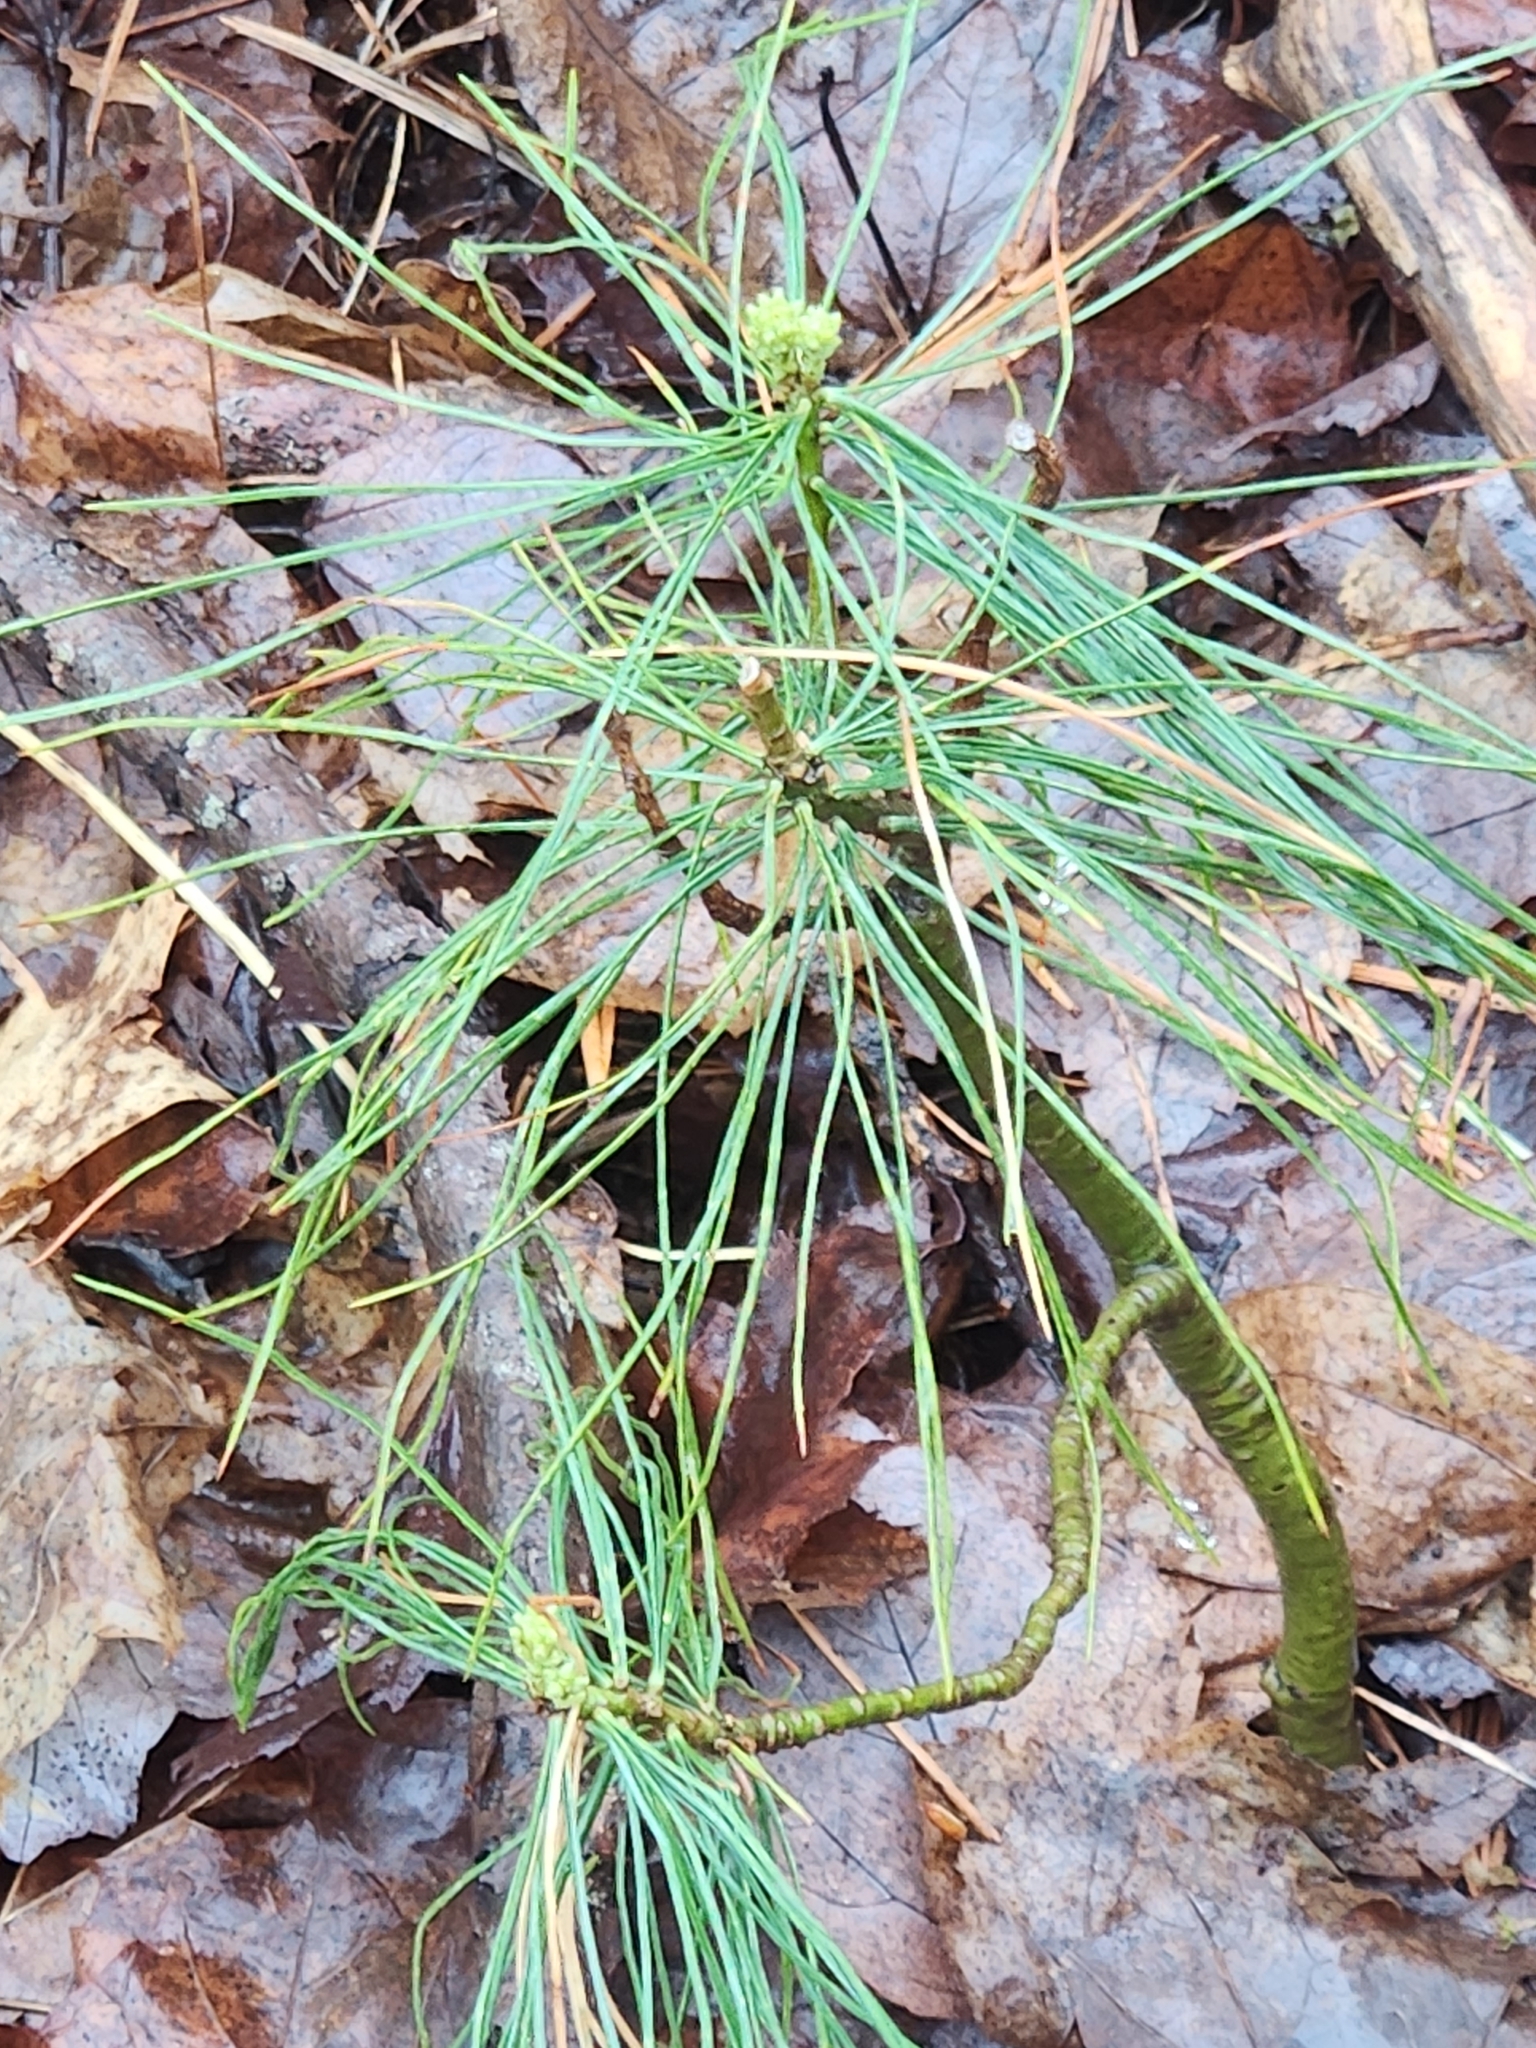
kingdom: Plantae
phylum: Tracheophyta
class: Pinopsida
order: Pinales
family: Pinaceae
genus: Pinus
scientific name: Pinus strobus
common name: Weymouth pine
